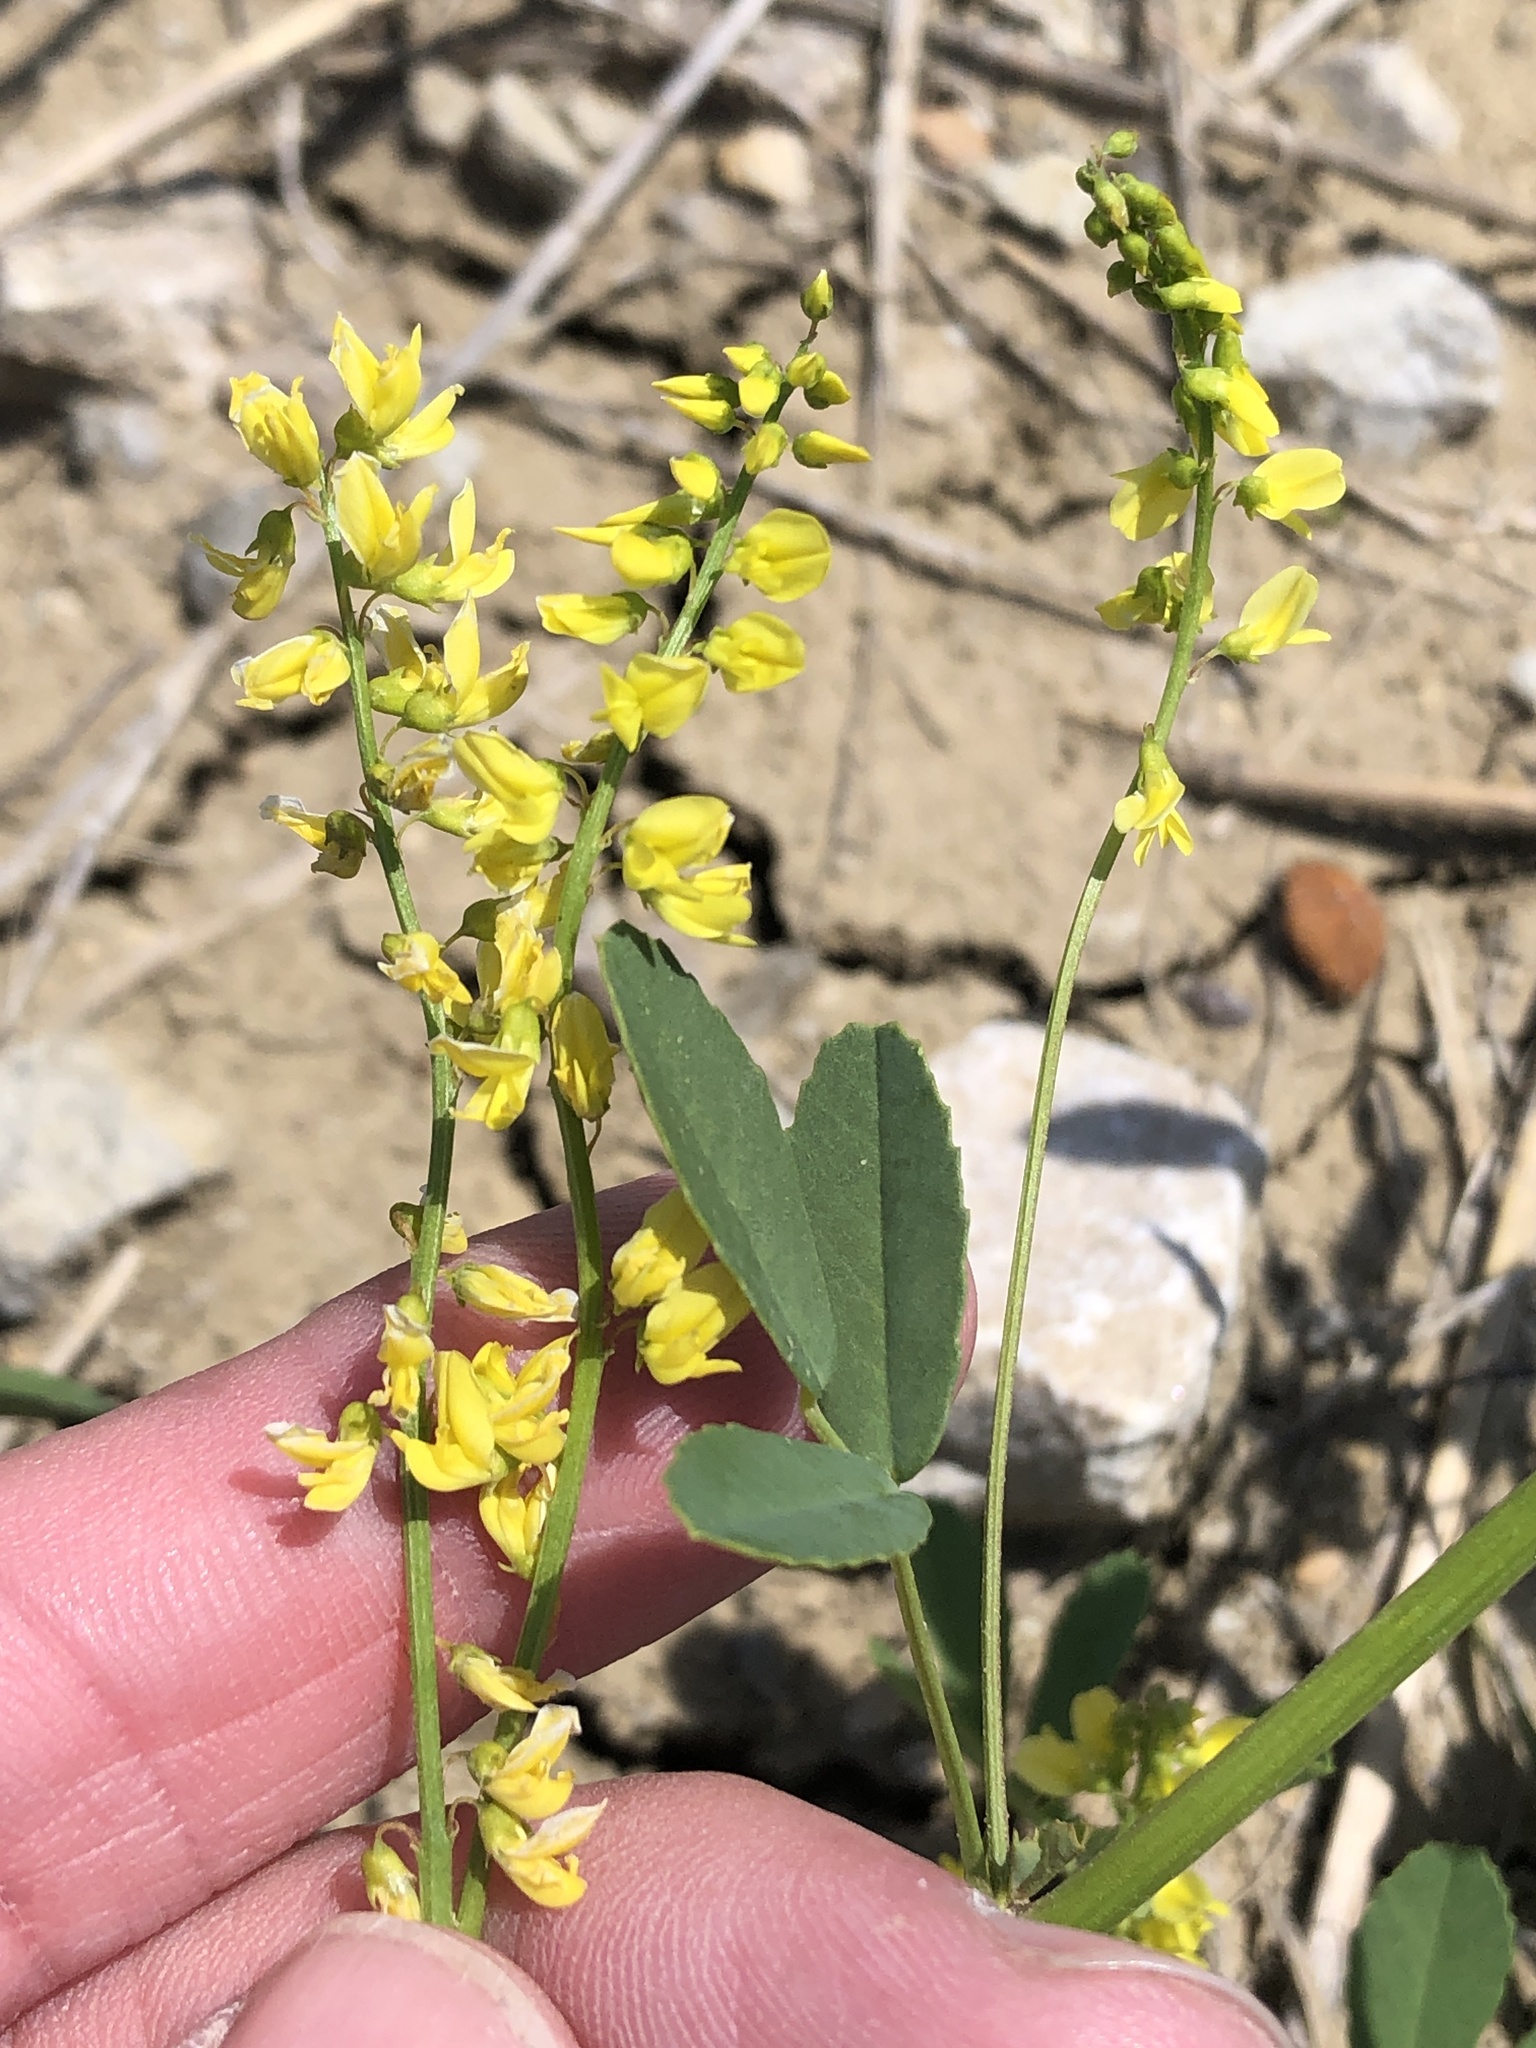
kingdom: Plantae
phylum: Tracheophyta
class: Magnoliopsida
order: Fabales
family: Fabaceae
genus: Melilotus
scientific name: Melilotus officinalis
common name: Sweetclover
